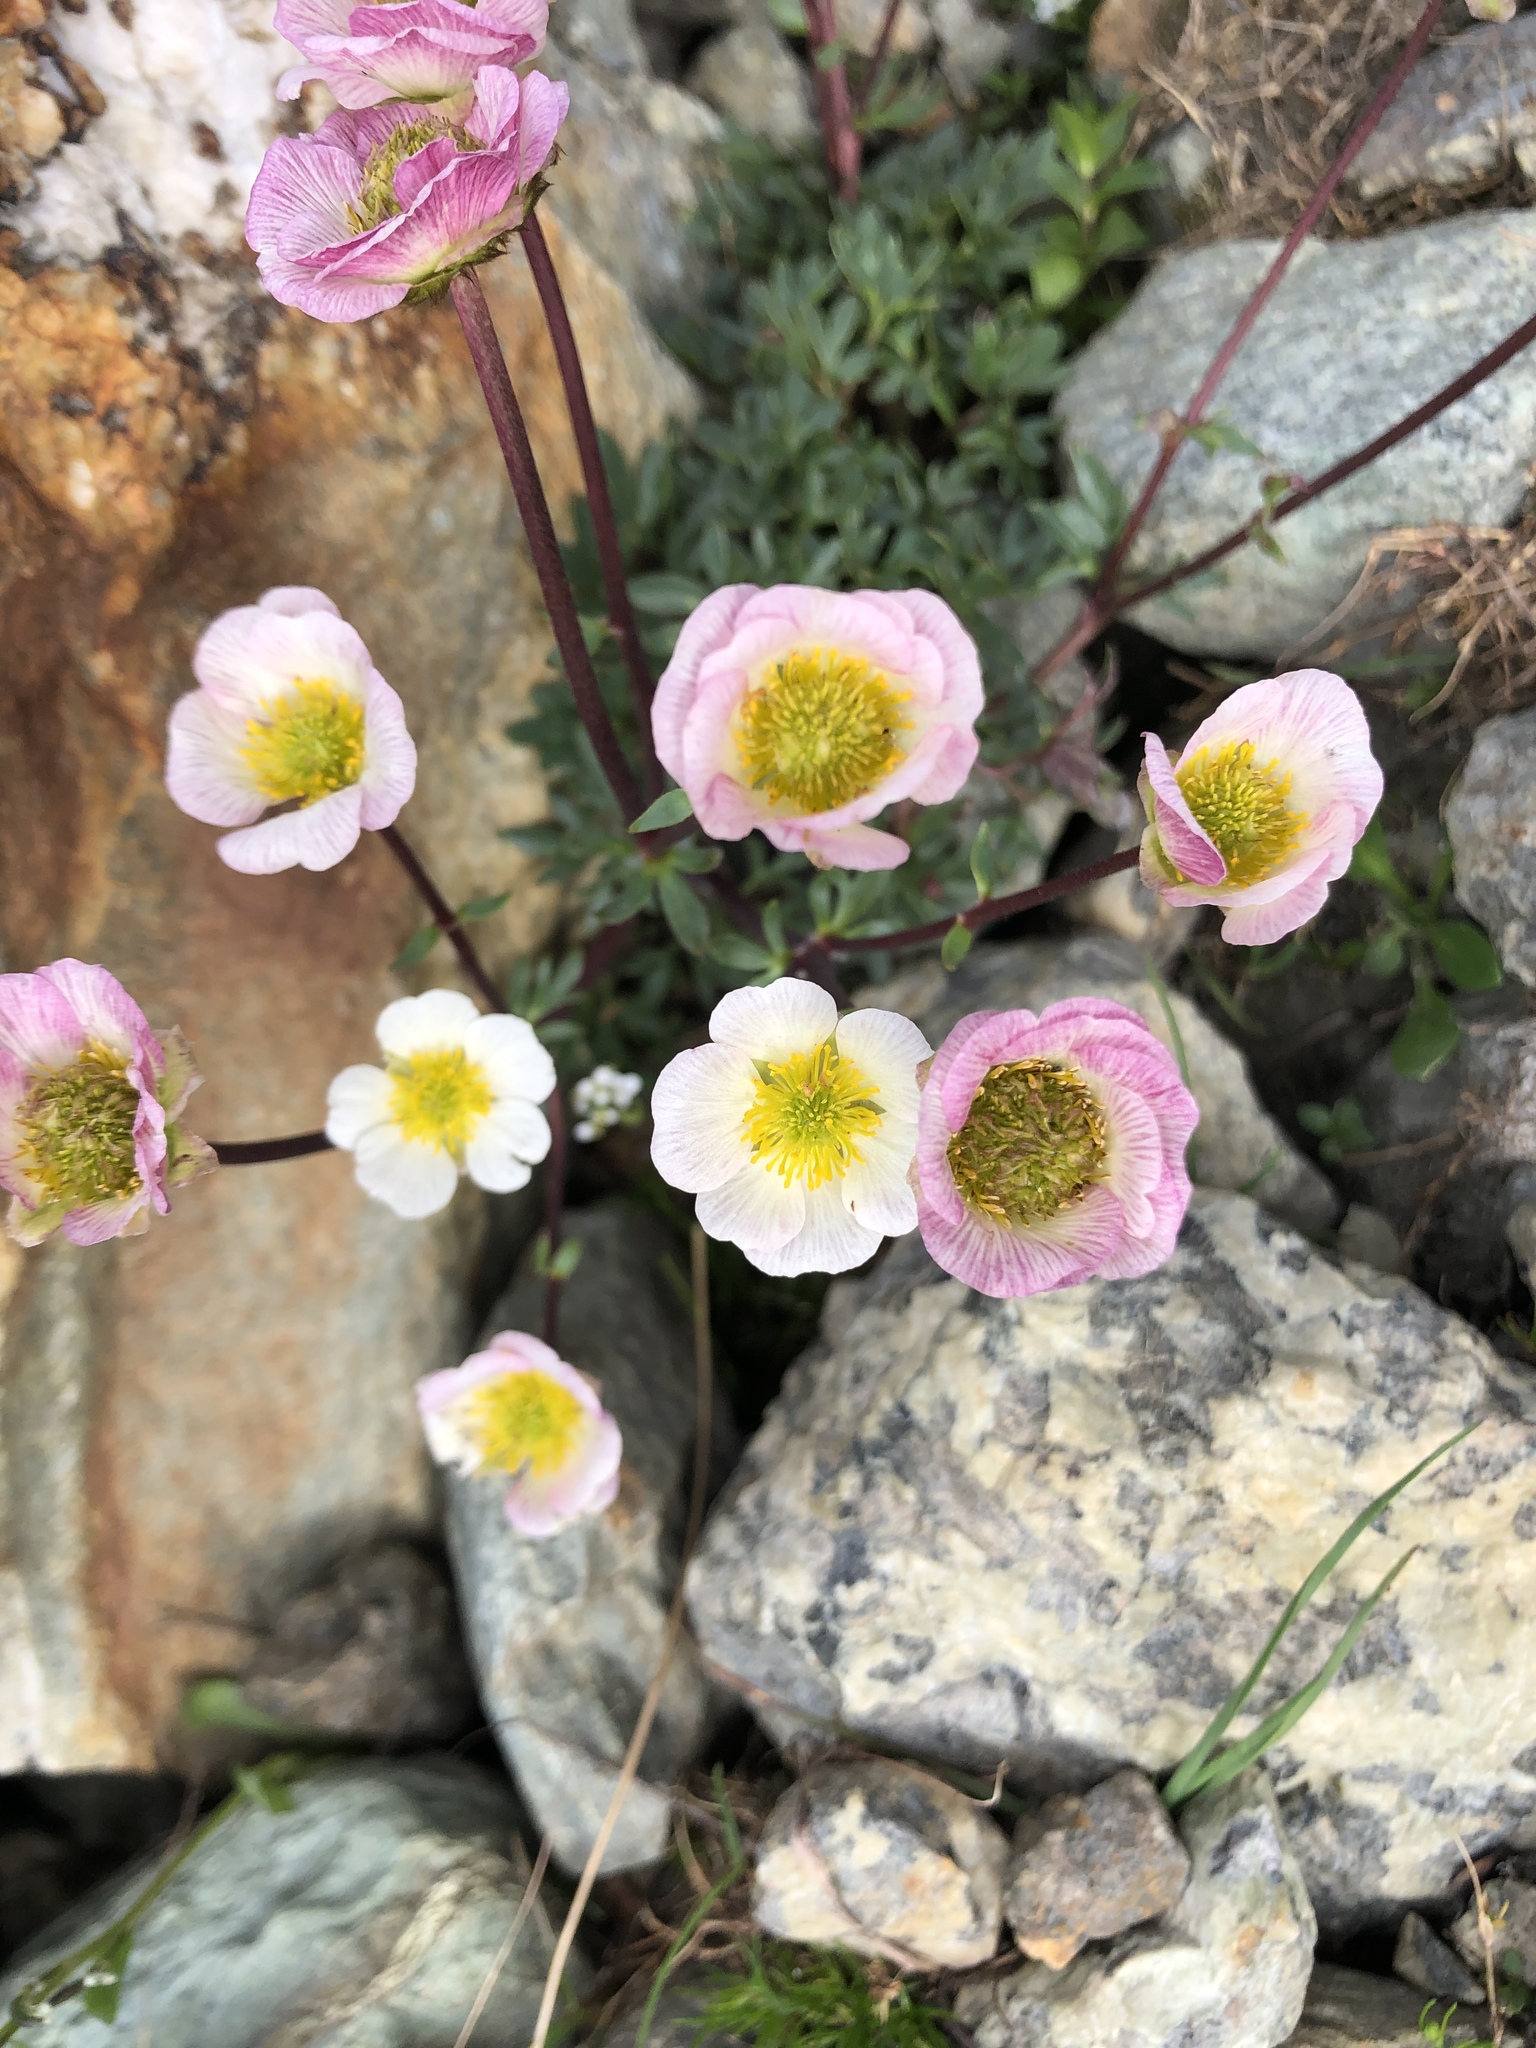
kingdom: Plantae
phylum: Tracheophyta
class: Magnoliopsida
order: Ranunculales
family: Ranunculaceae
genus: Ranunculus
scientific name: Ranunculus glacialis
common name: Glacier buttercup
